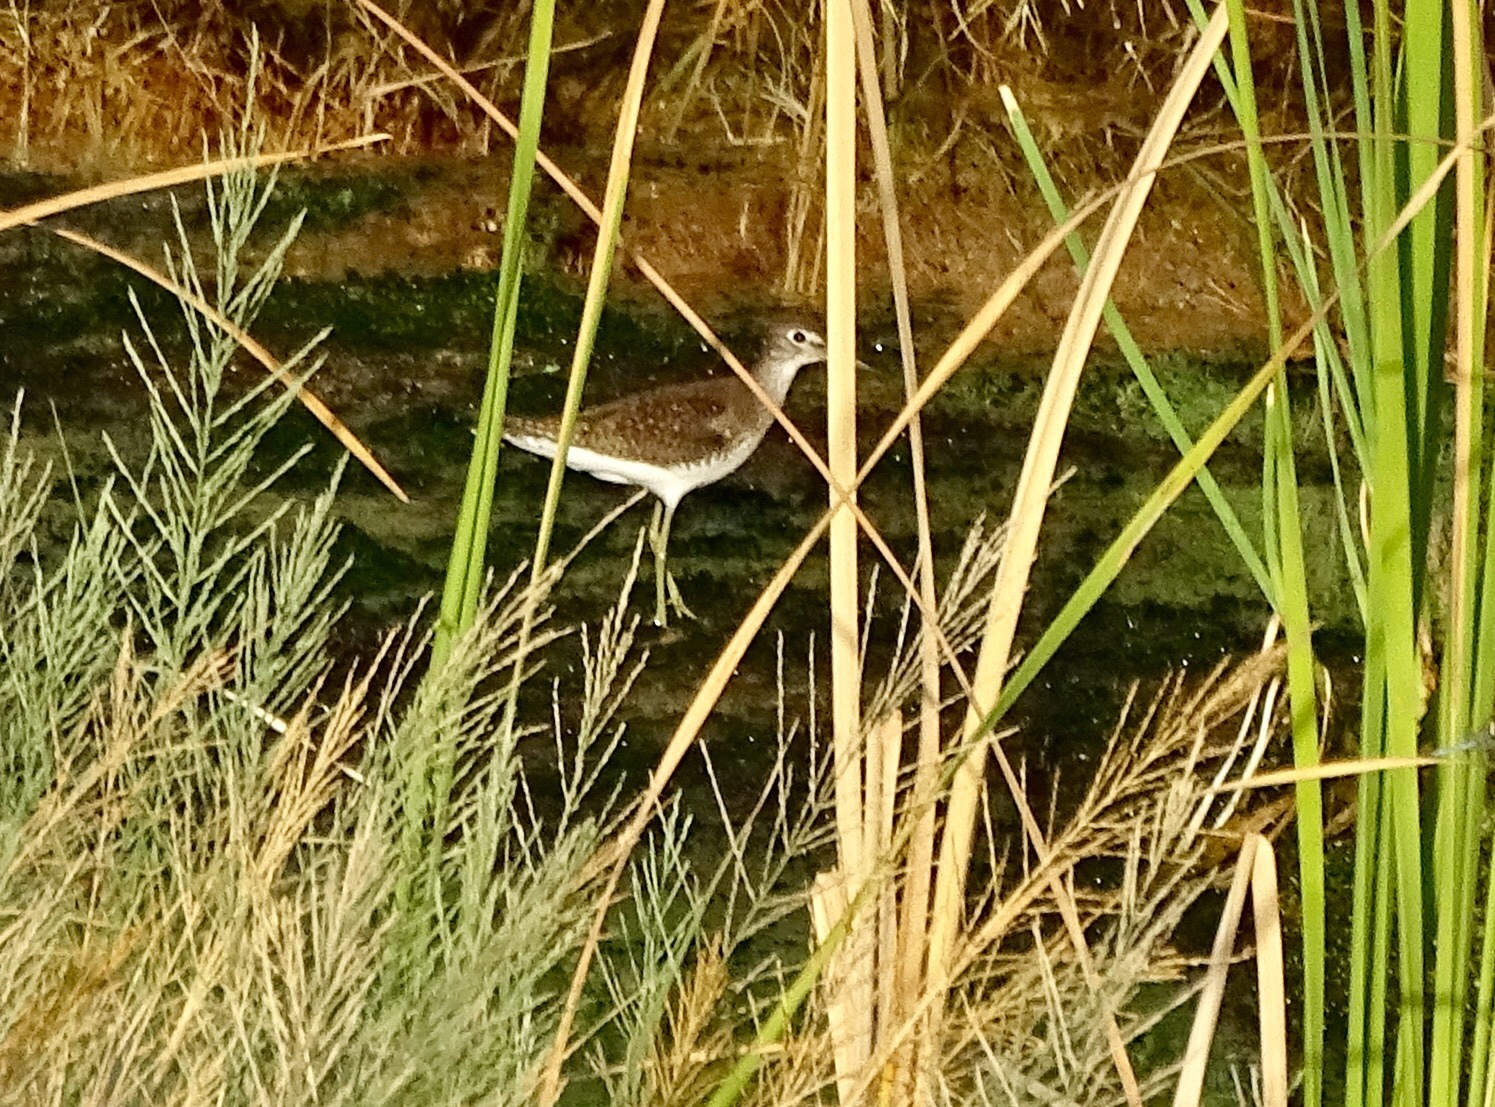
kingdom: Animalia
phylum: Chordata
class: Aves
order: Charadriiformes
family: Scolopacidae
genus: Tringa
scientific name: Tringa solitaria
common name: Solitary sandpiper
